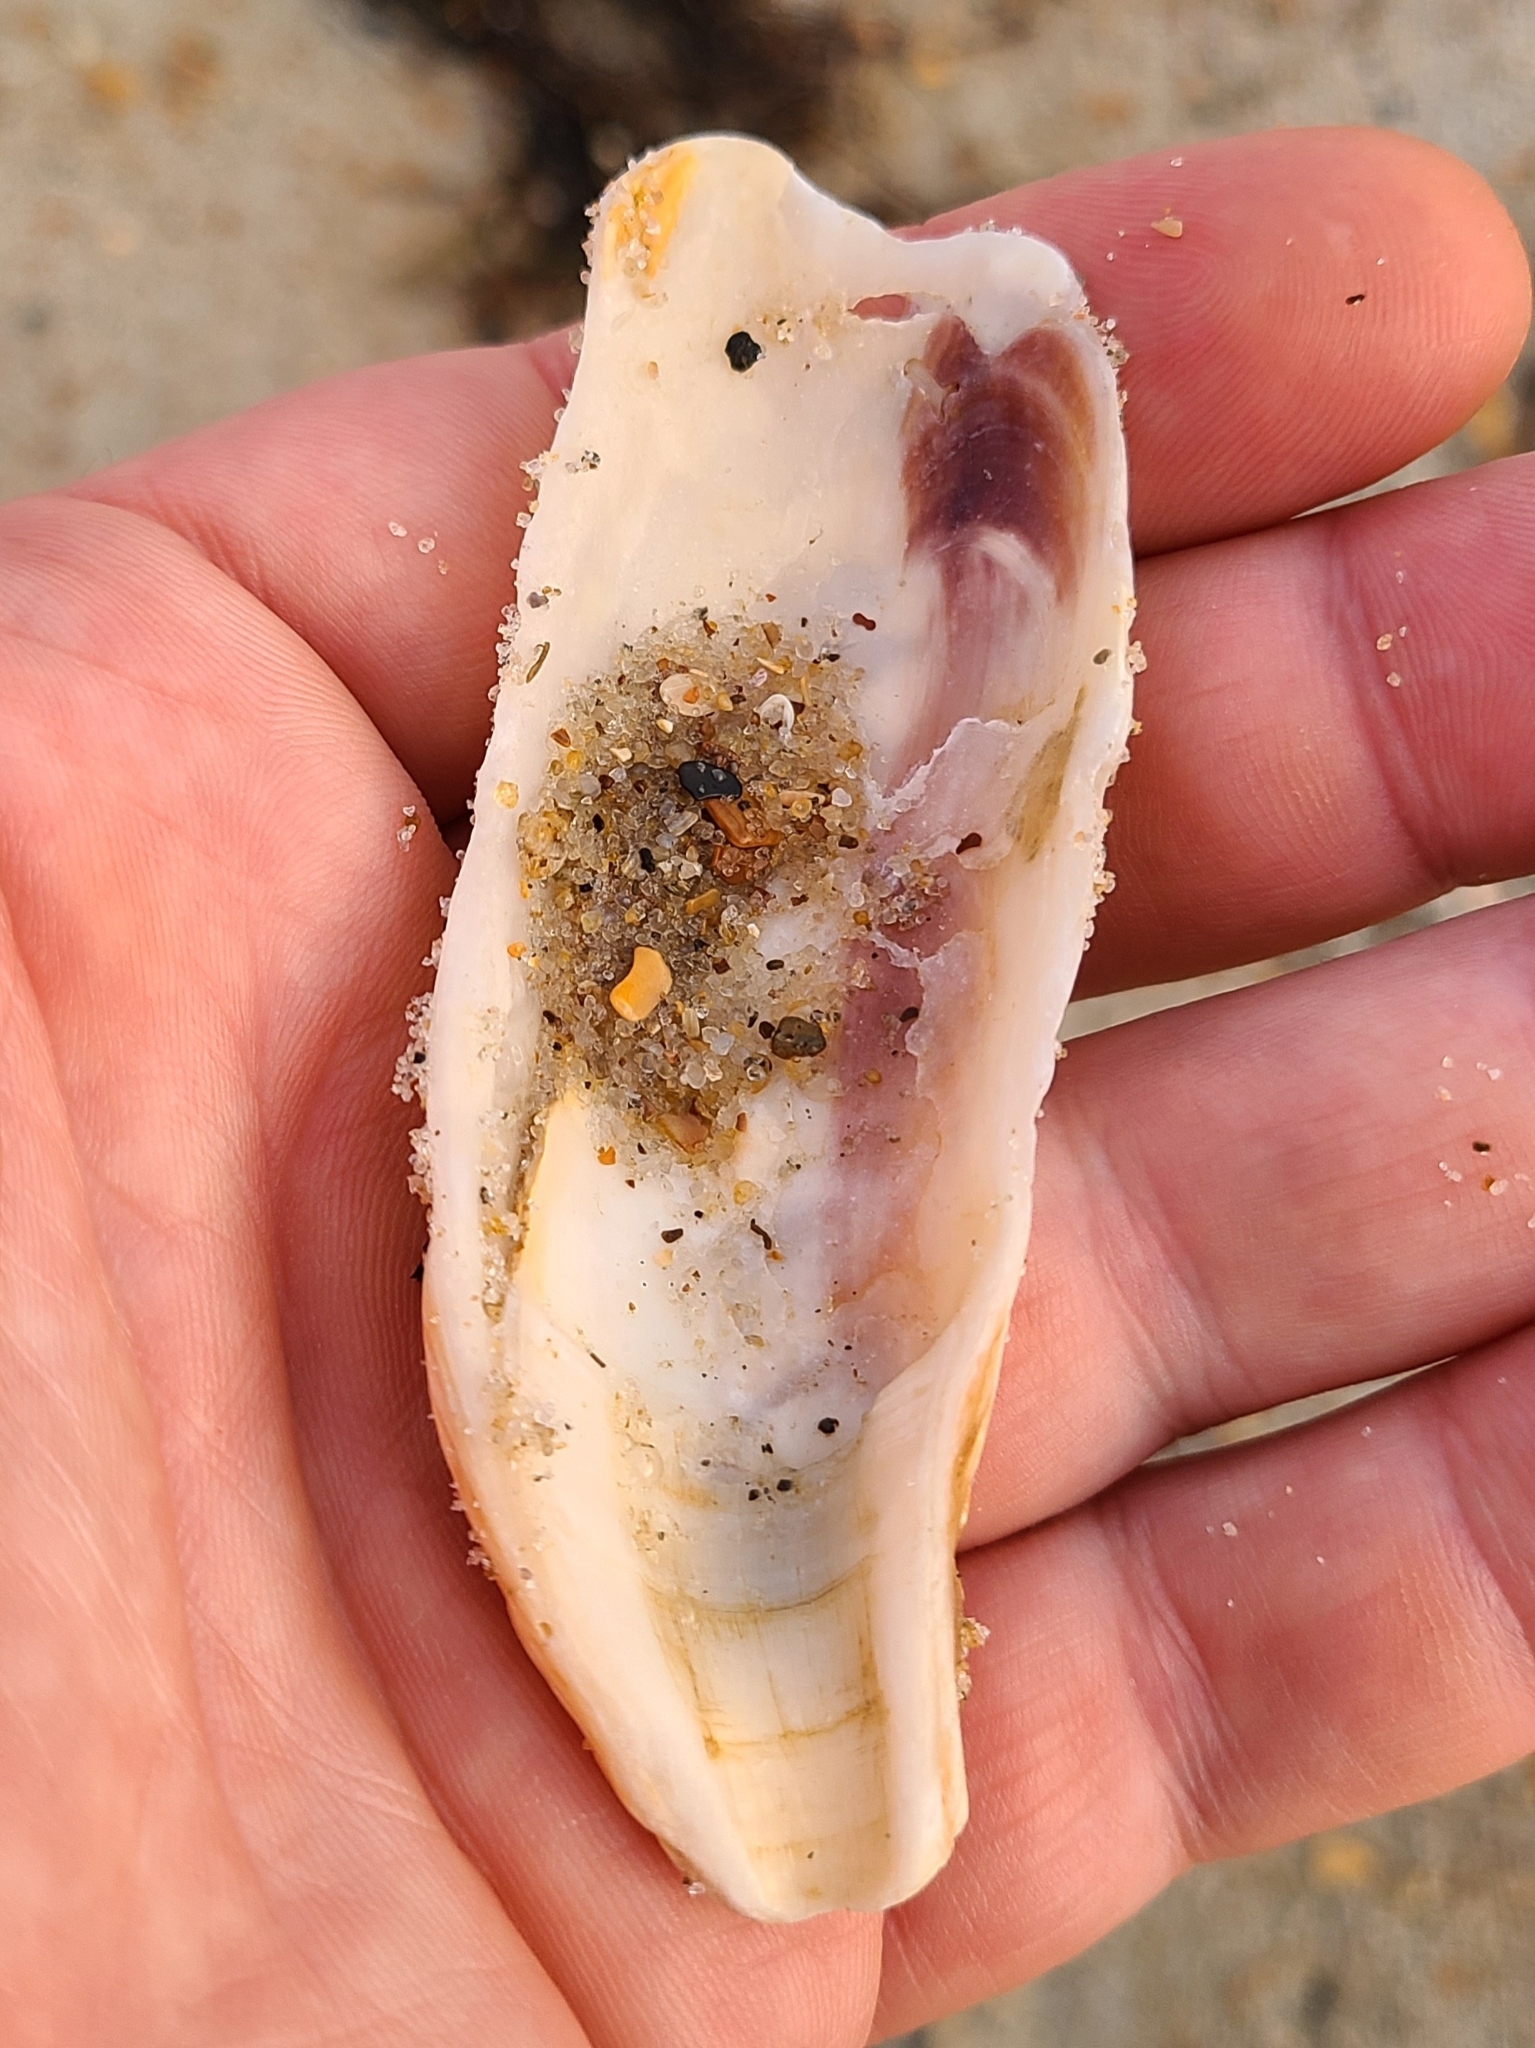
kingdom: Animalia
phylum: Mollusca
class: Bivalvia
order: Ostreida
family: Ostreidae
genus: Crassostrea
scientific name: Crassostrea virginica
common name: American oyster
